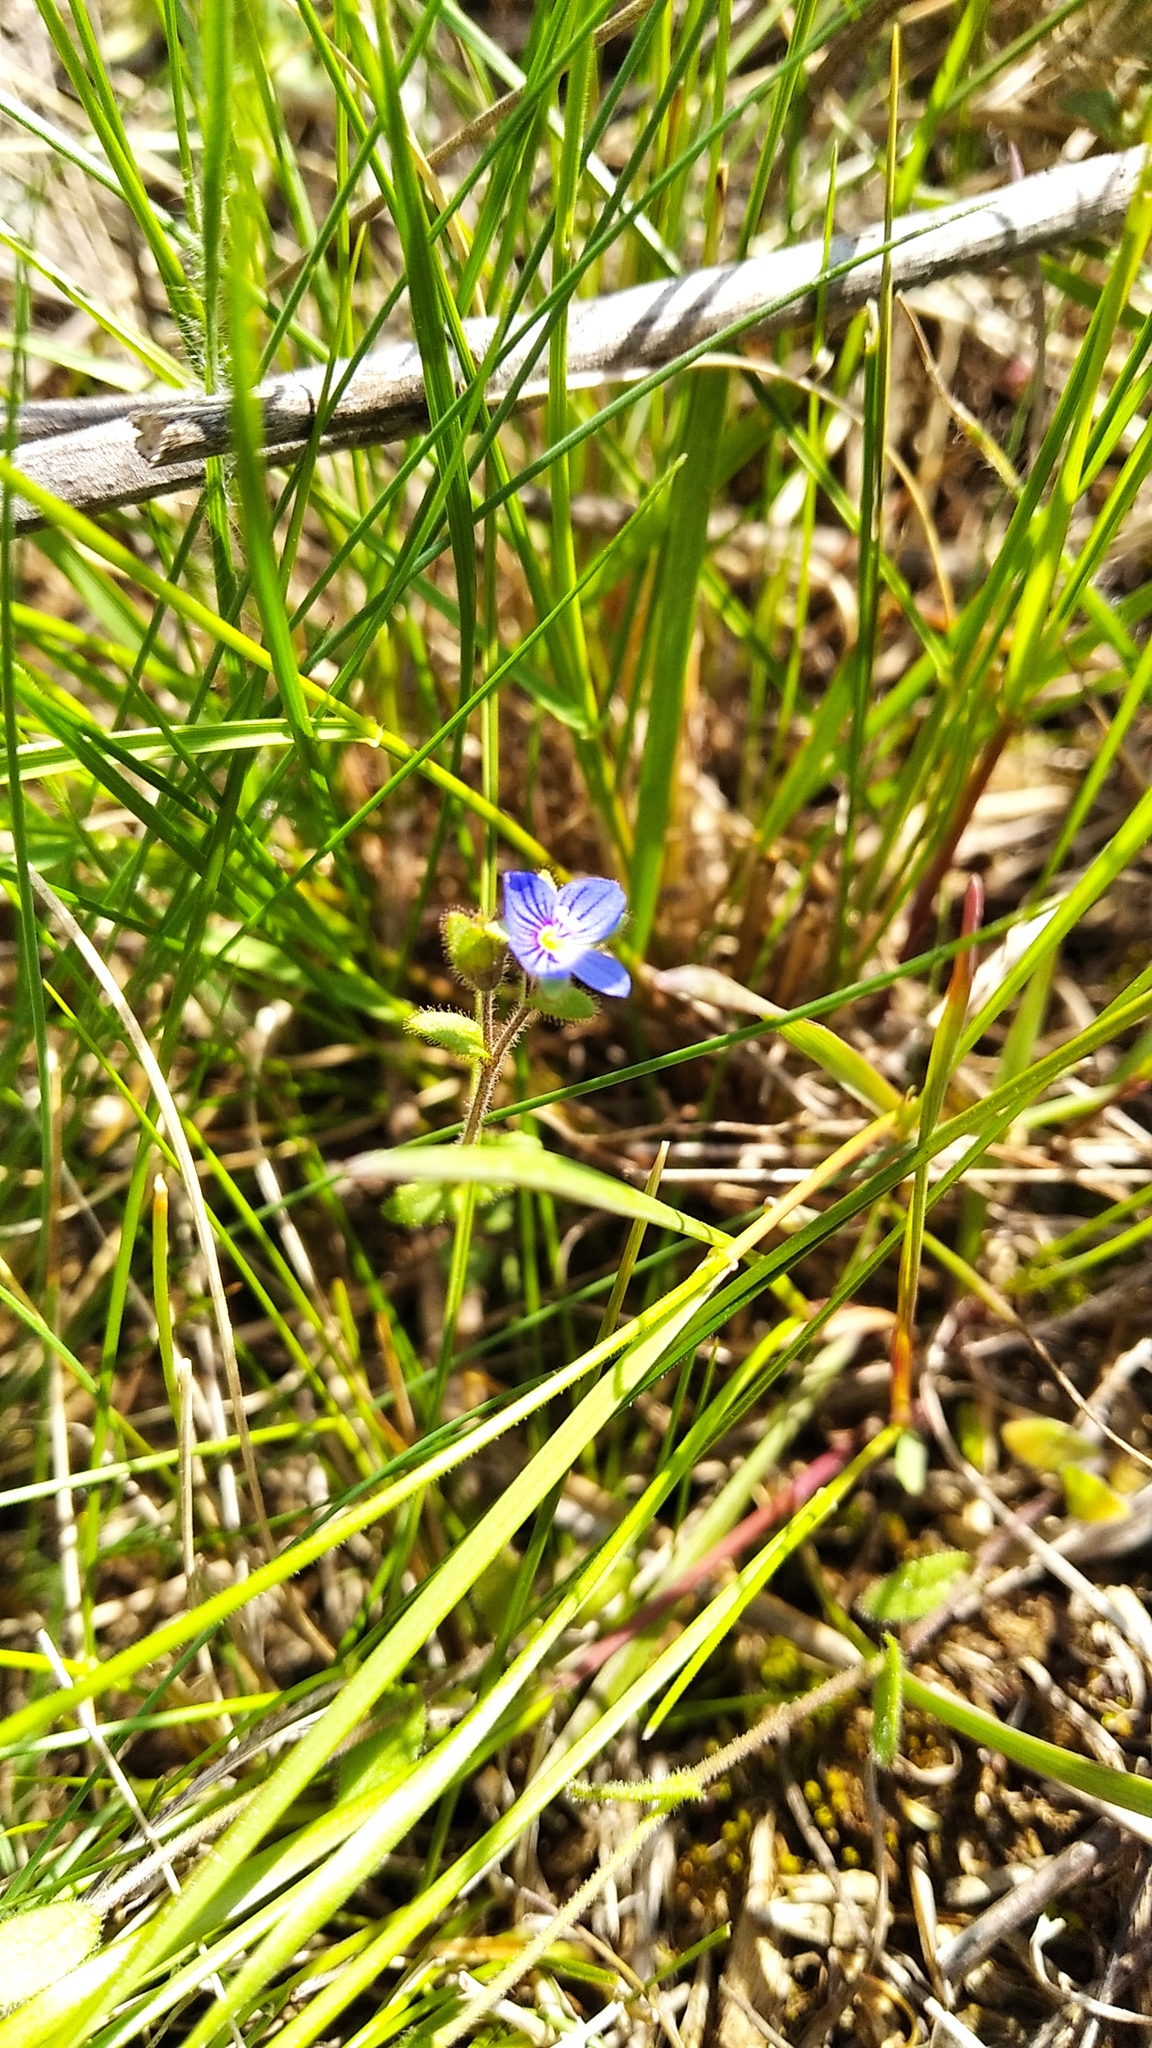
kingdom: Plantae
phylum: Tracheophyta
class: Magnoliopsida
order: Lamiales
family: Plantaginaceae
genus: Veronica
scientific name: Veronica triphyllos
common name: Fingered speedwell
